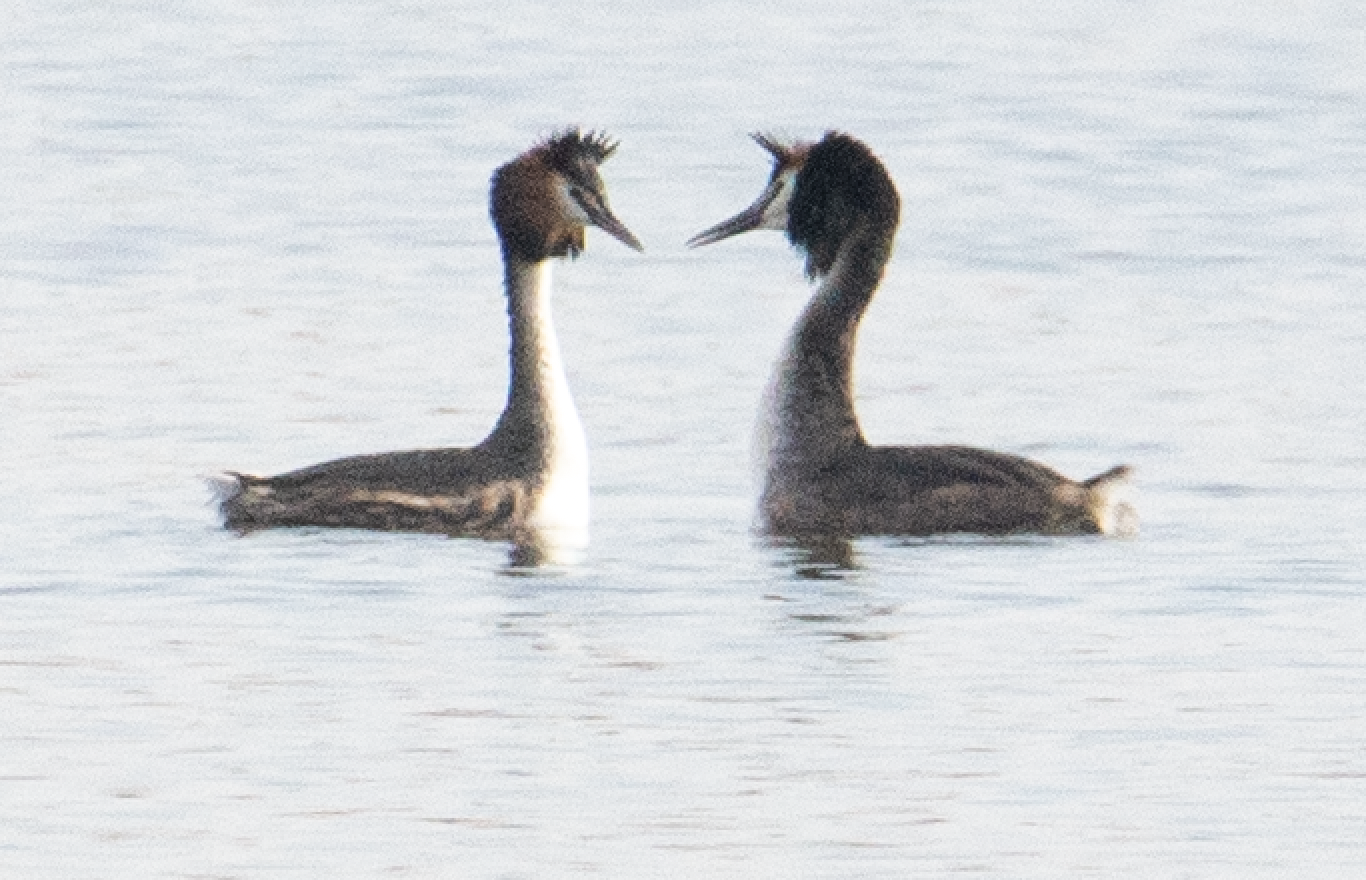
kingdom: Animalia
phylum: Chordata
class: Aves
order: Podicipediformes
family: Podicipedidae
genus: Podiceps
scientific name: Podiceps cristatus
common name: Great crested grebe
